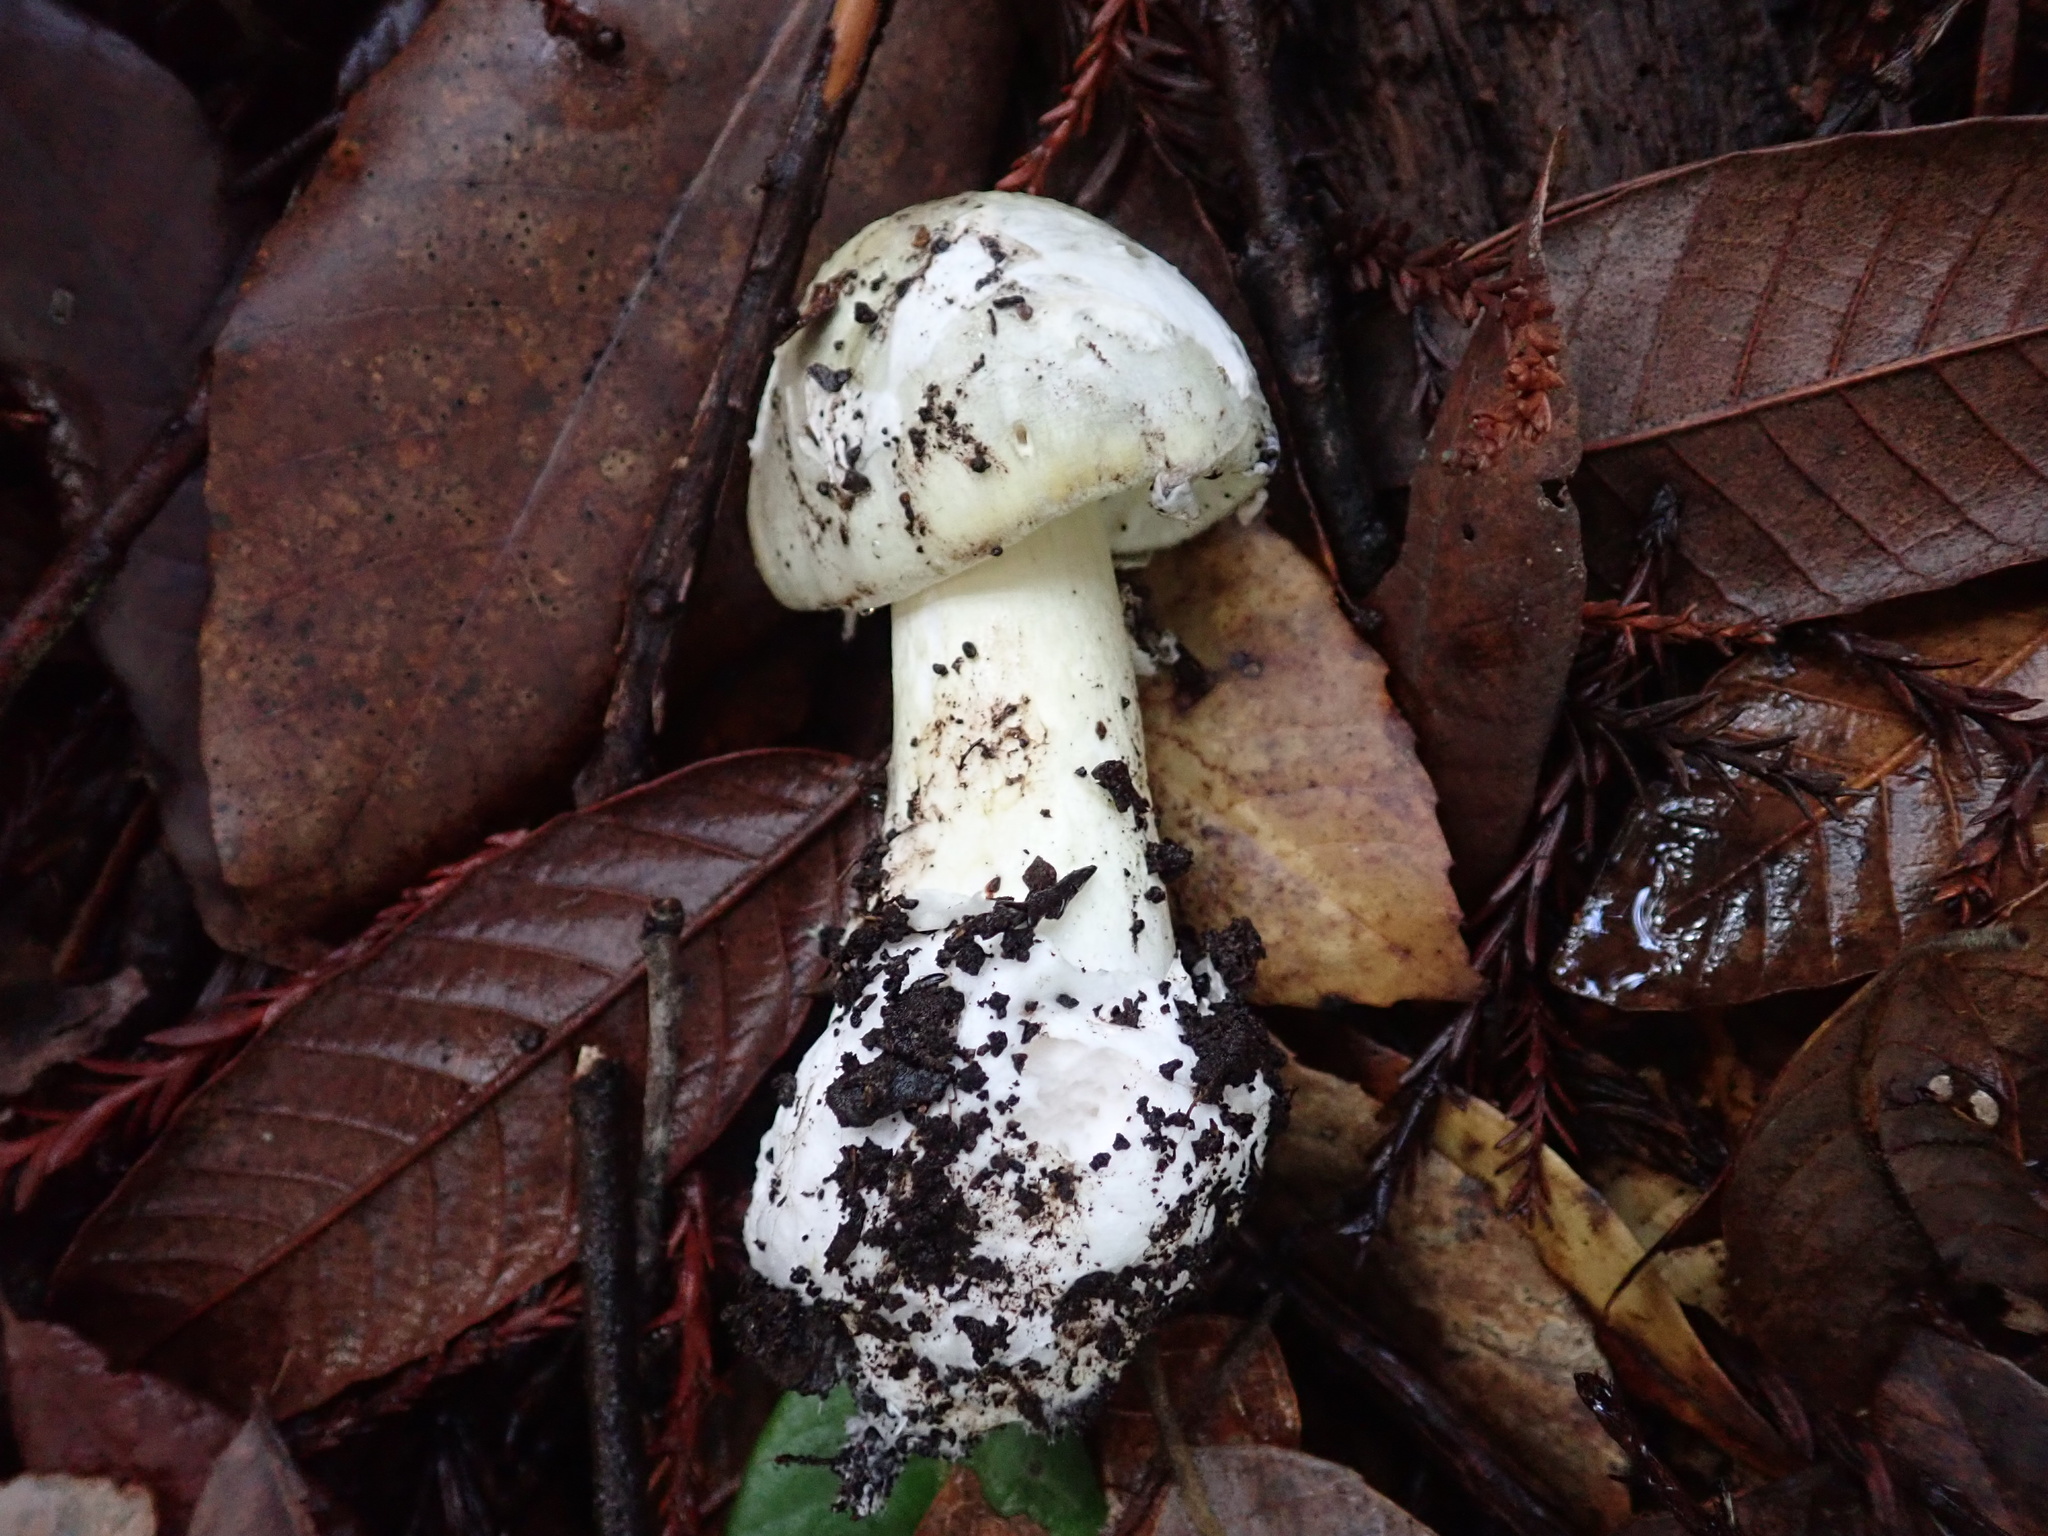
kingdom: Fungi
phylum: Basidiomycota
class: Agaricomycetes
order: Agaricales
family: Amanitaceae
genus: Amanita
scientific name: Amanita phalloides
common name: Death cap
